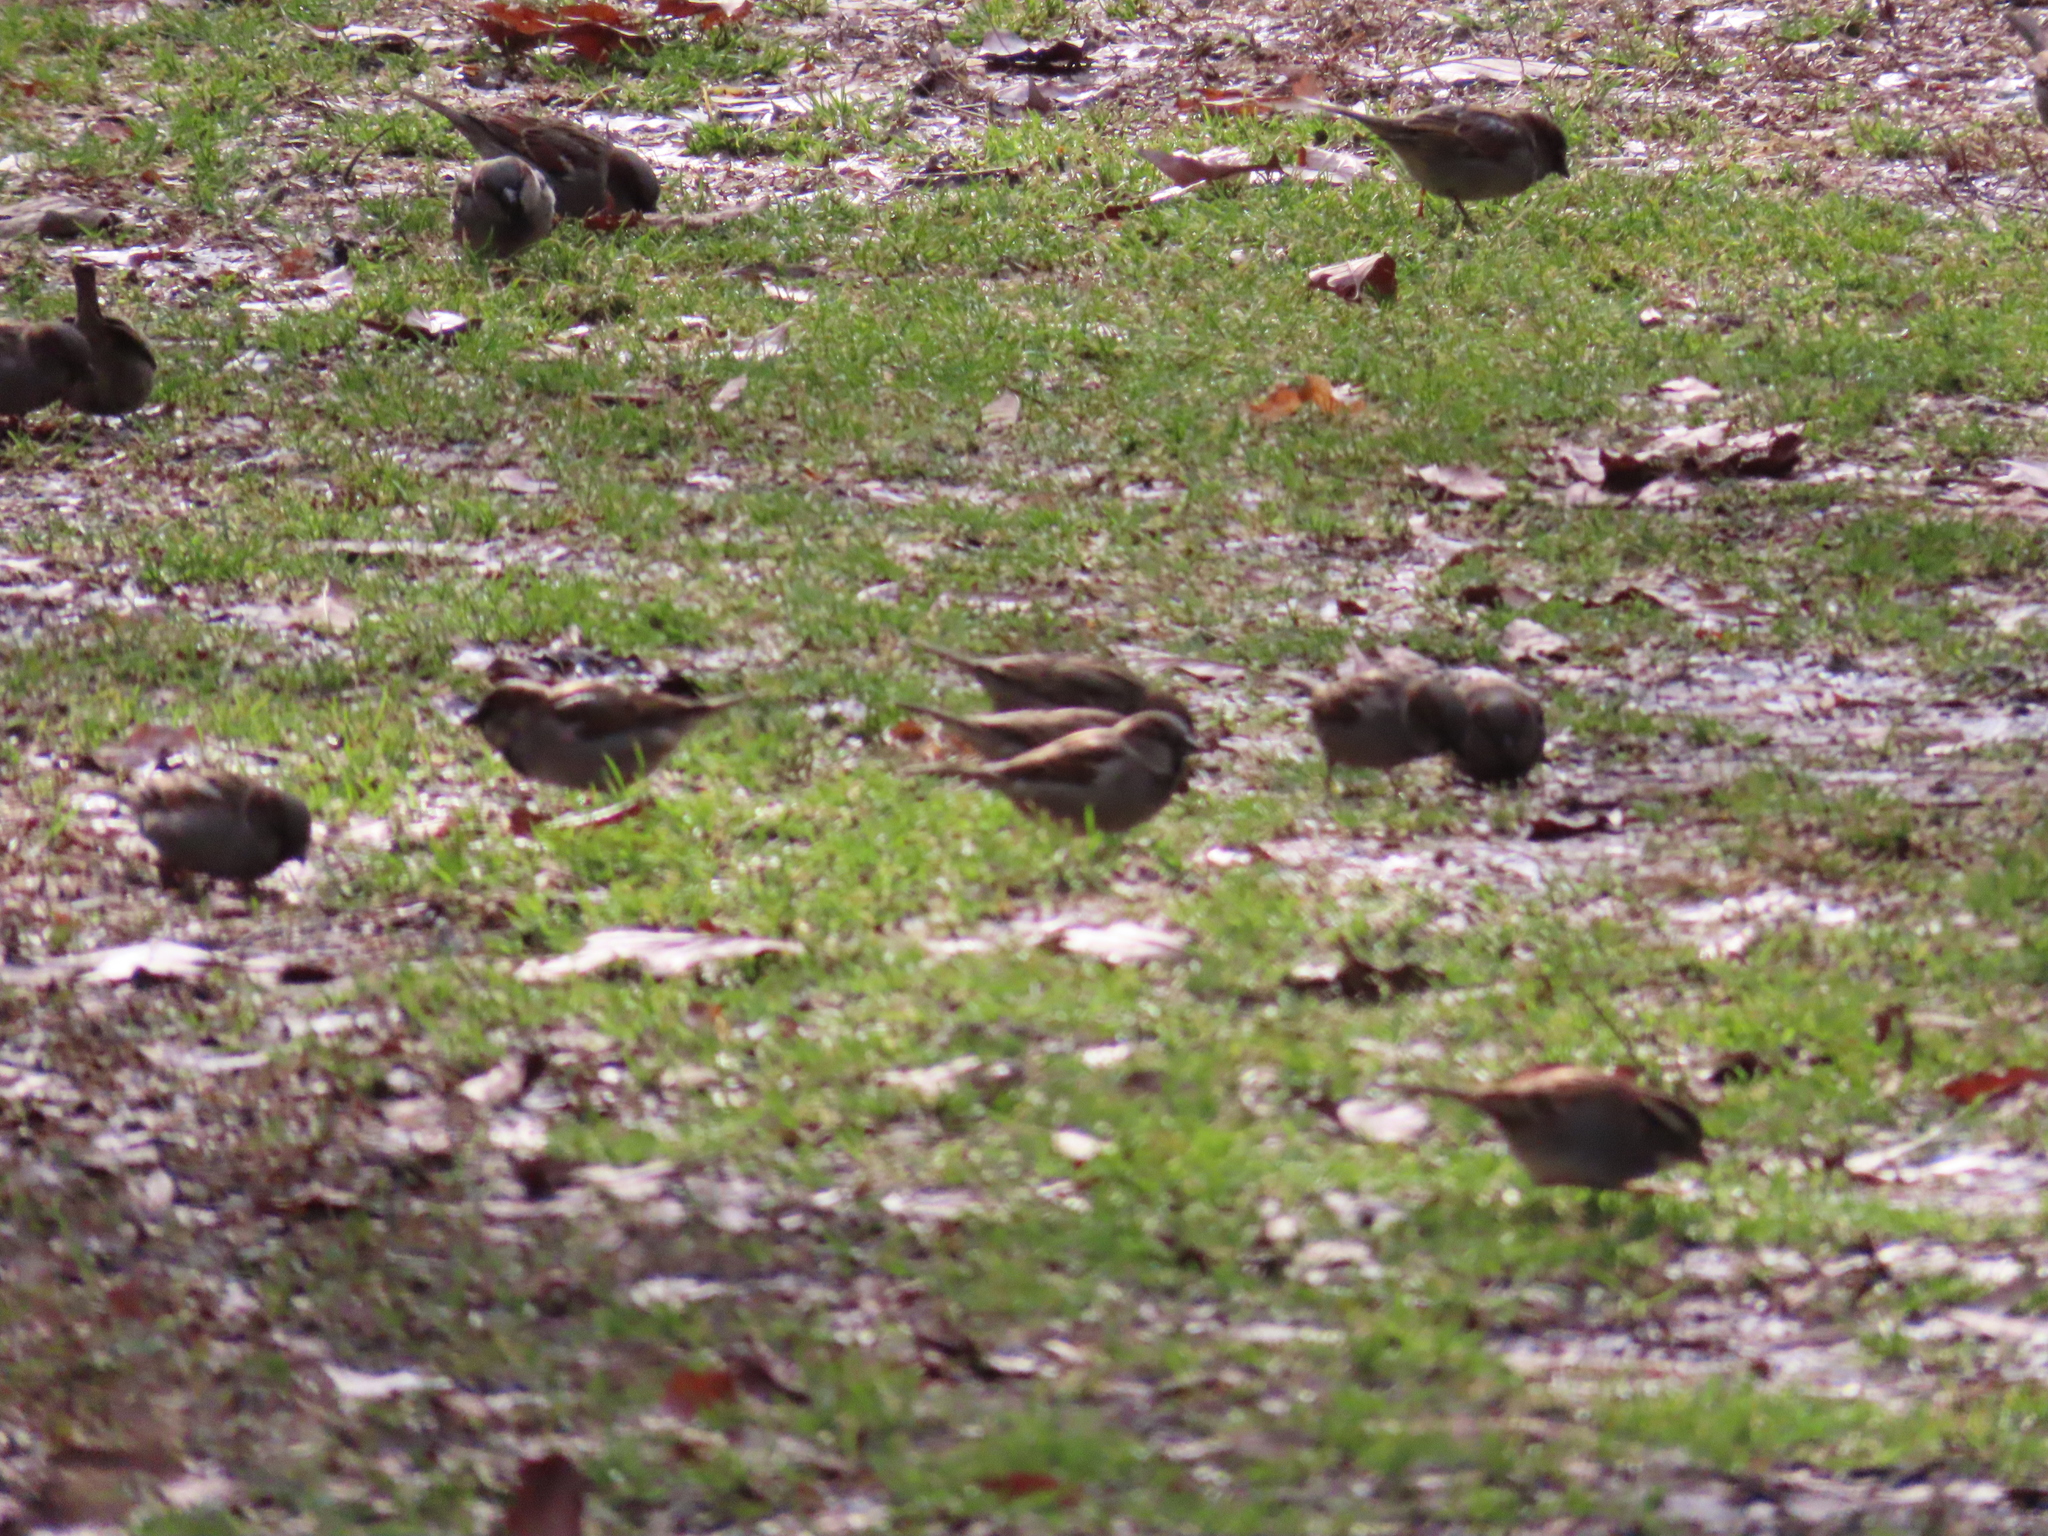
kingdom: Animalia
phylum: Chordata
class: Aves
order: Passeriformes
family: Passeridae
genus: Passer
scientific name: Passer domesticus
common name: House sparrow
